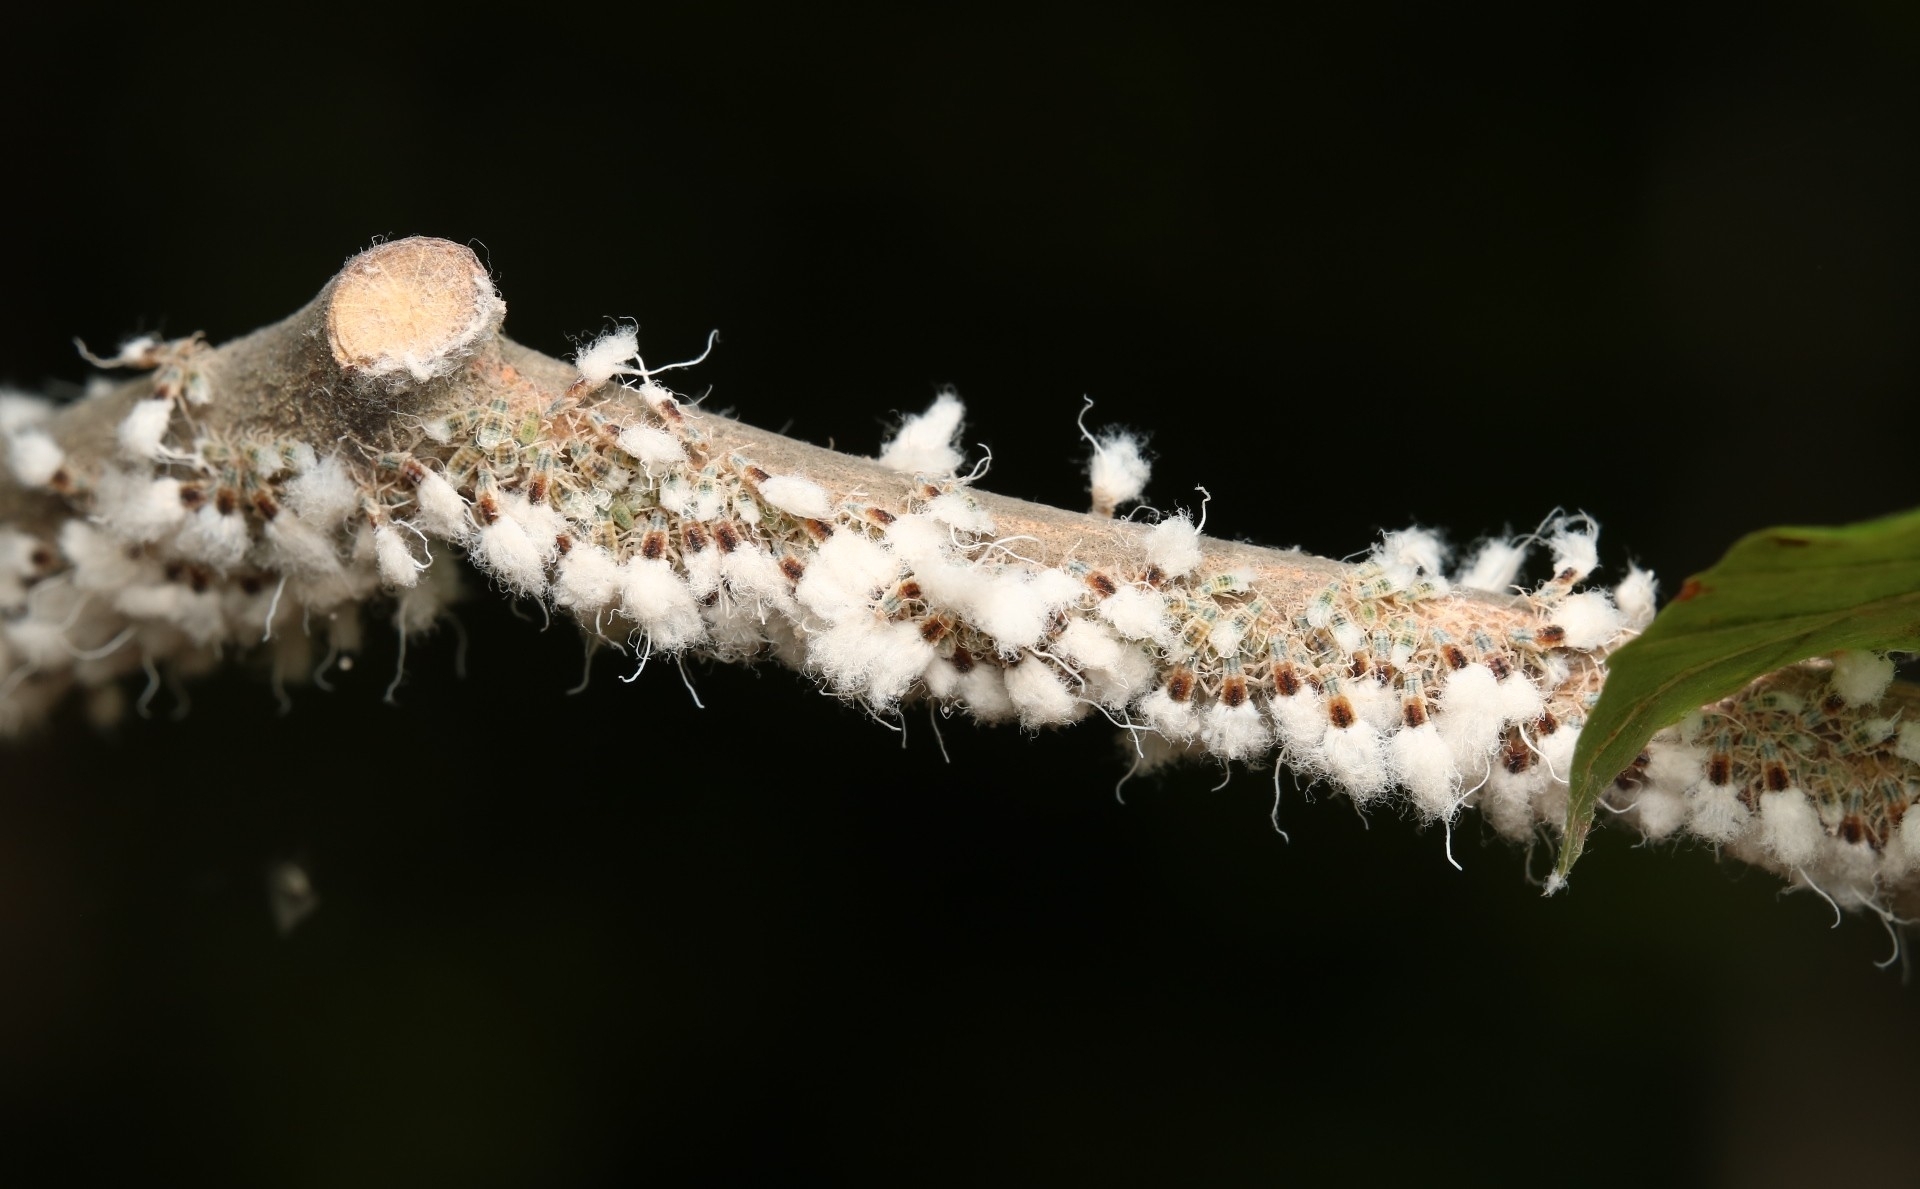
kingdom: Animalia
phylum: Arthropoda
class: Insecta
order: Hemiptera
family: Aphididae
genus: Grylloprociphilus
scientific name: Grylloprociphilus imbricator
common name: Beech blight aphid
